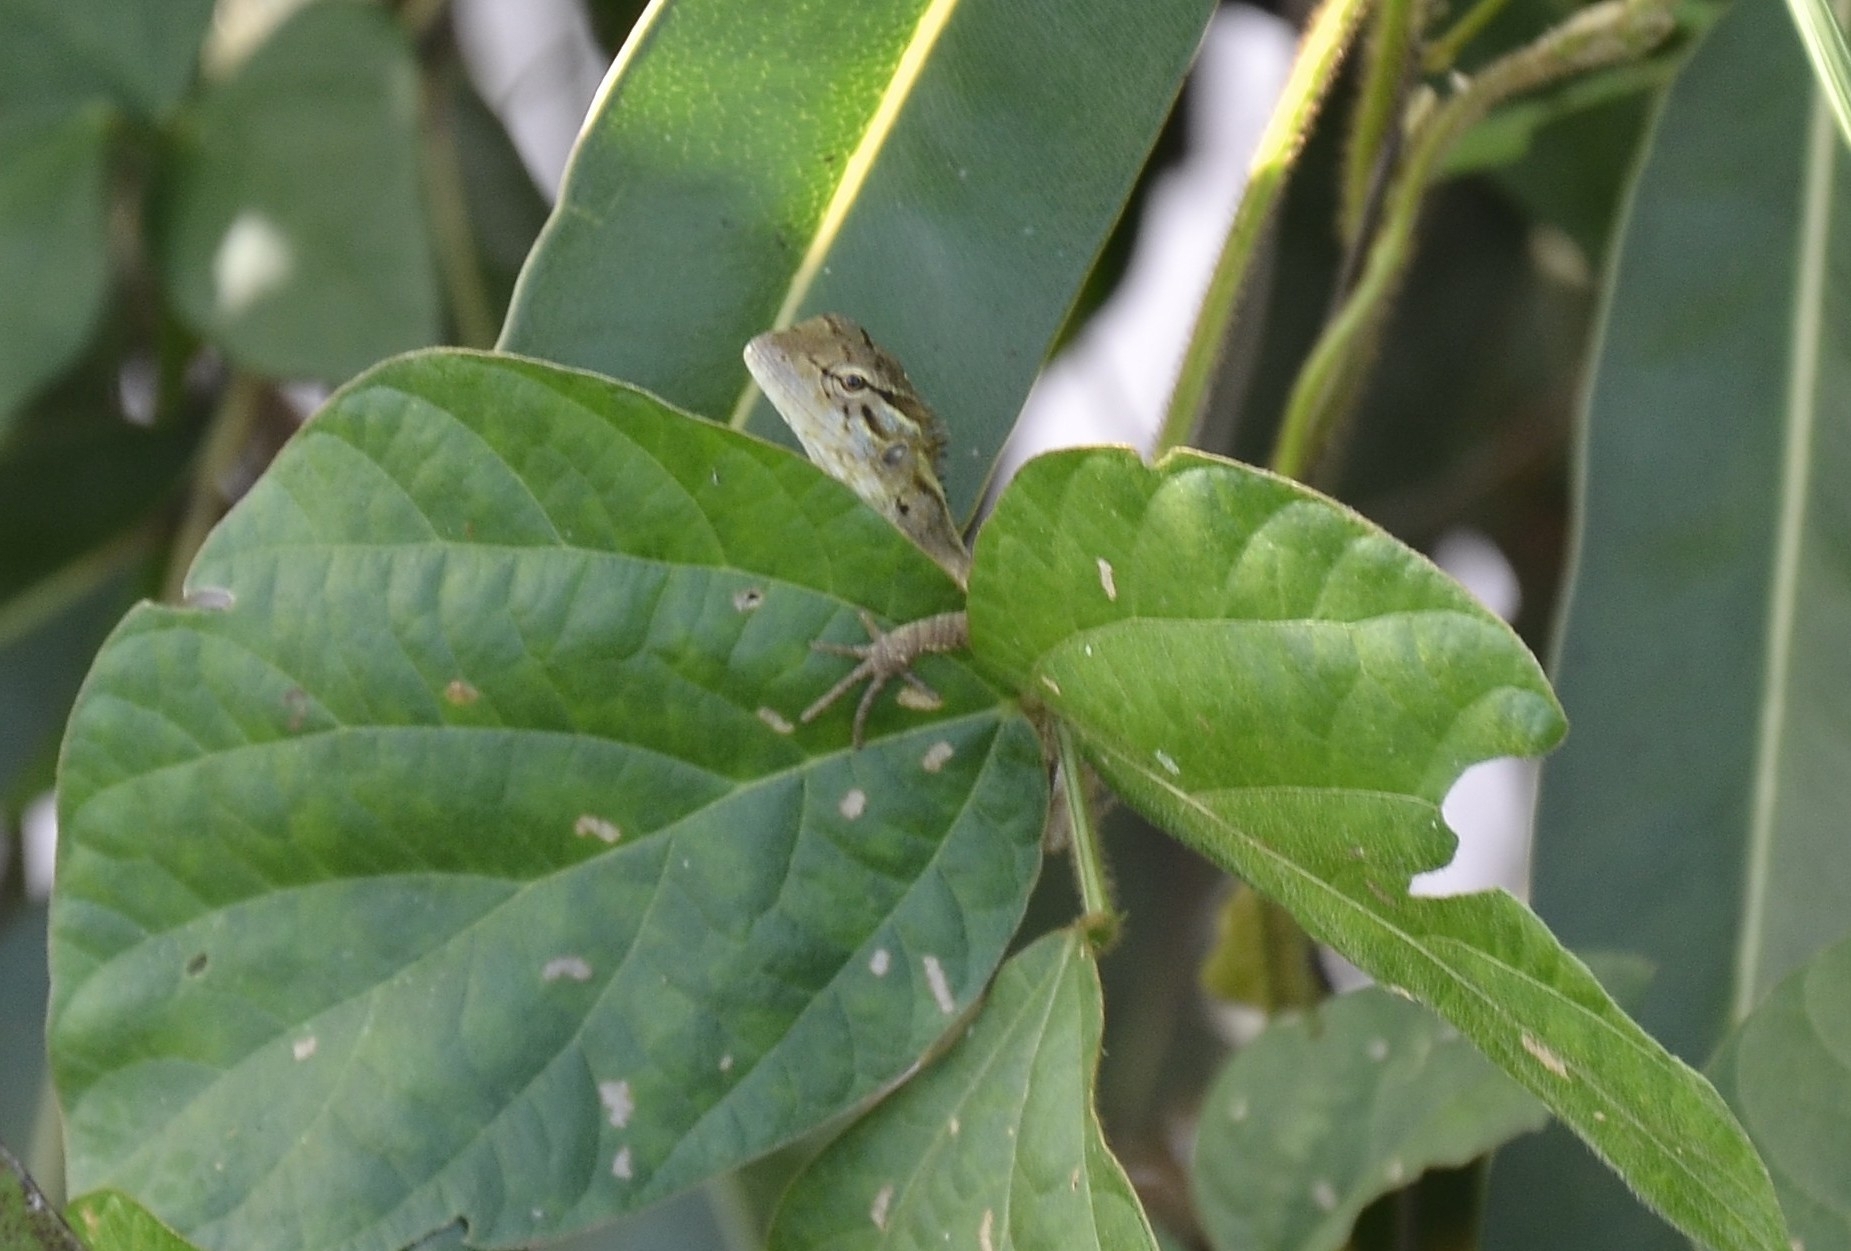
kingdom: Animalia
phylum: Chordata
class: Squamata
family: Agamidae
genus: Calotes
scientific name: Calotes versicolor
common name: Oriental garden lizard
